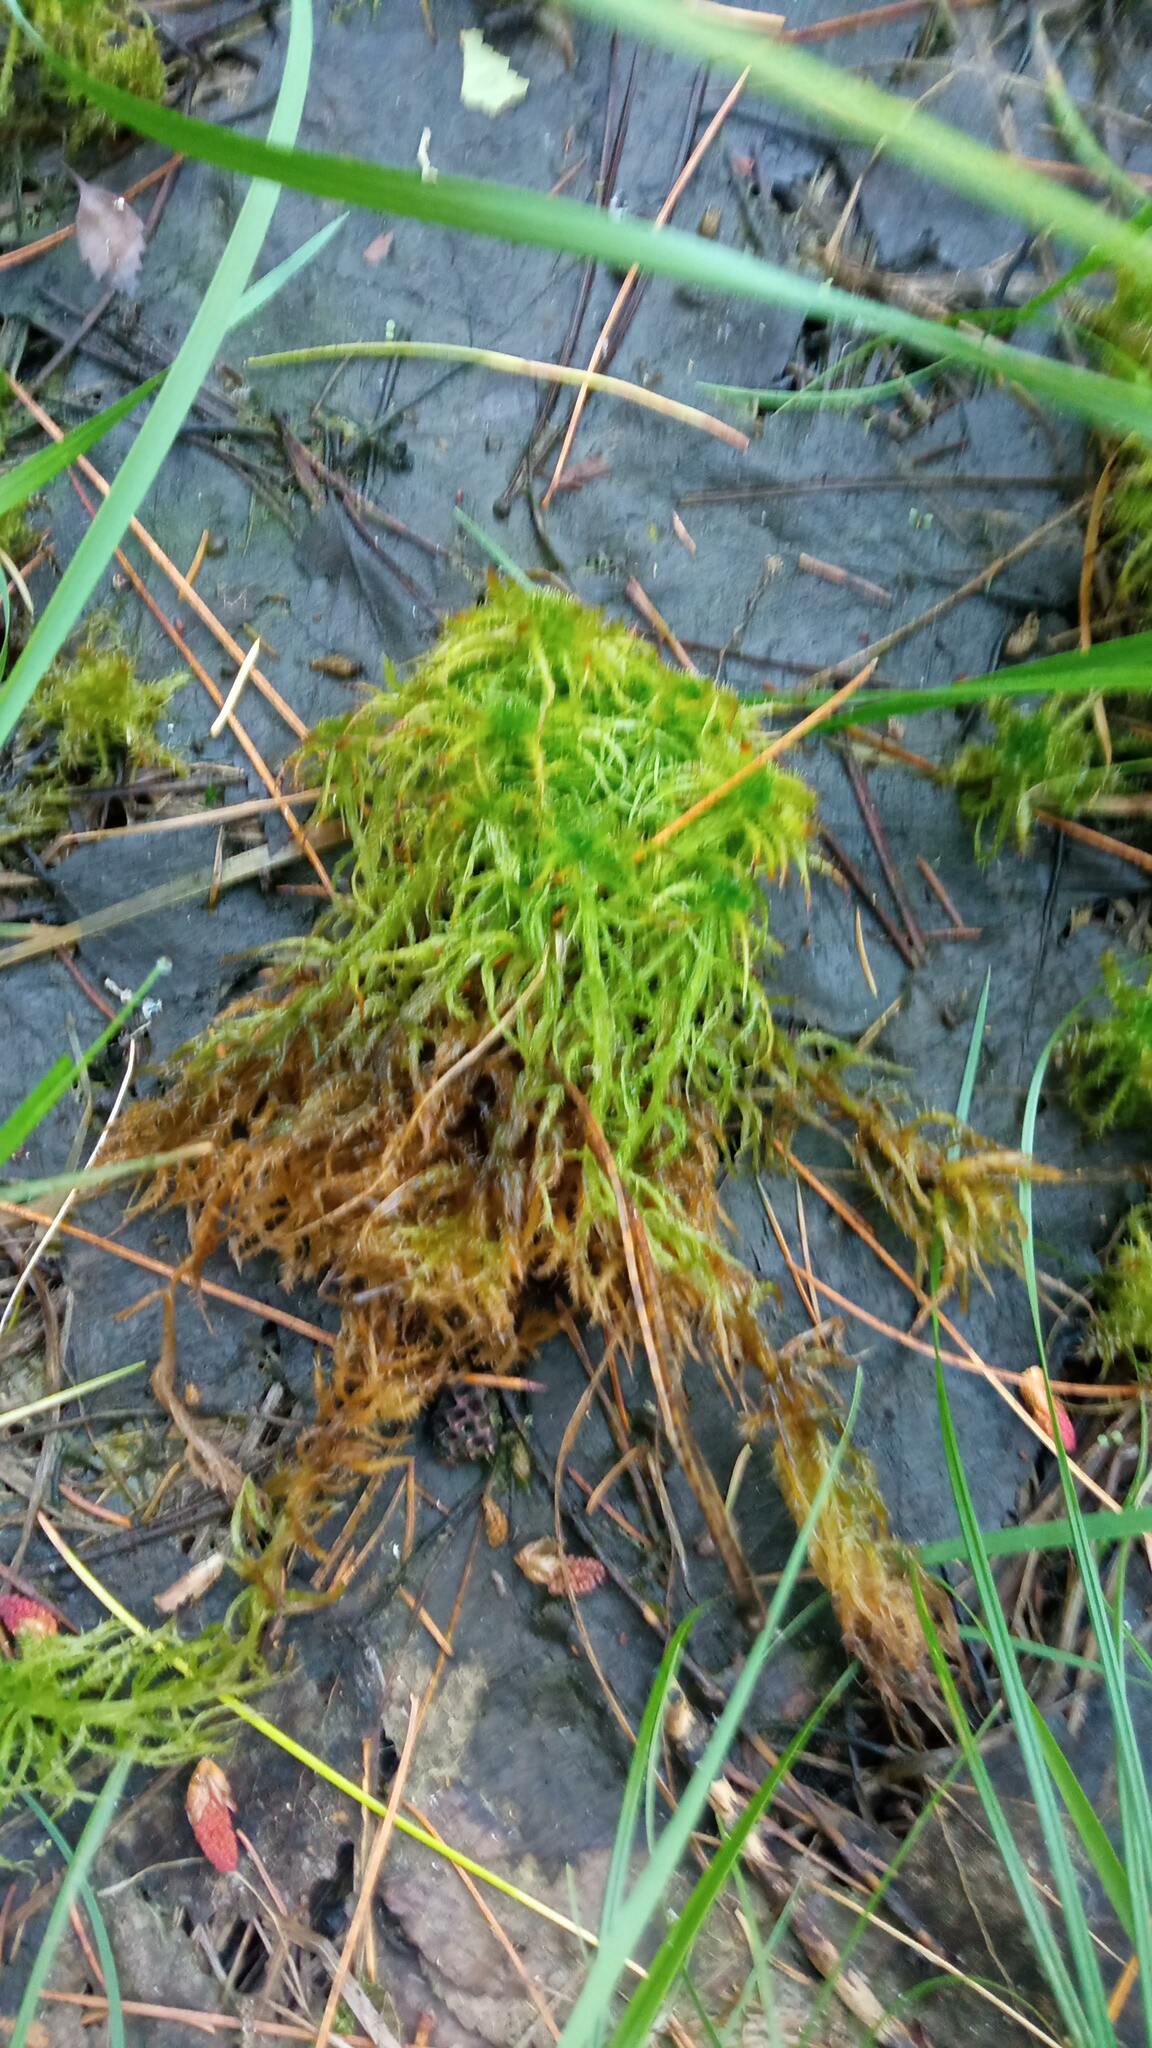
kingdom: Plantae
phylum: Bryophyta
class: Sphagnopsida
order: Sphagnales
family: Sphagnaceae
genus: Sphagnum
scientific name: Sphagnum squarrosum
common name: Shaggy peat moss
